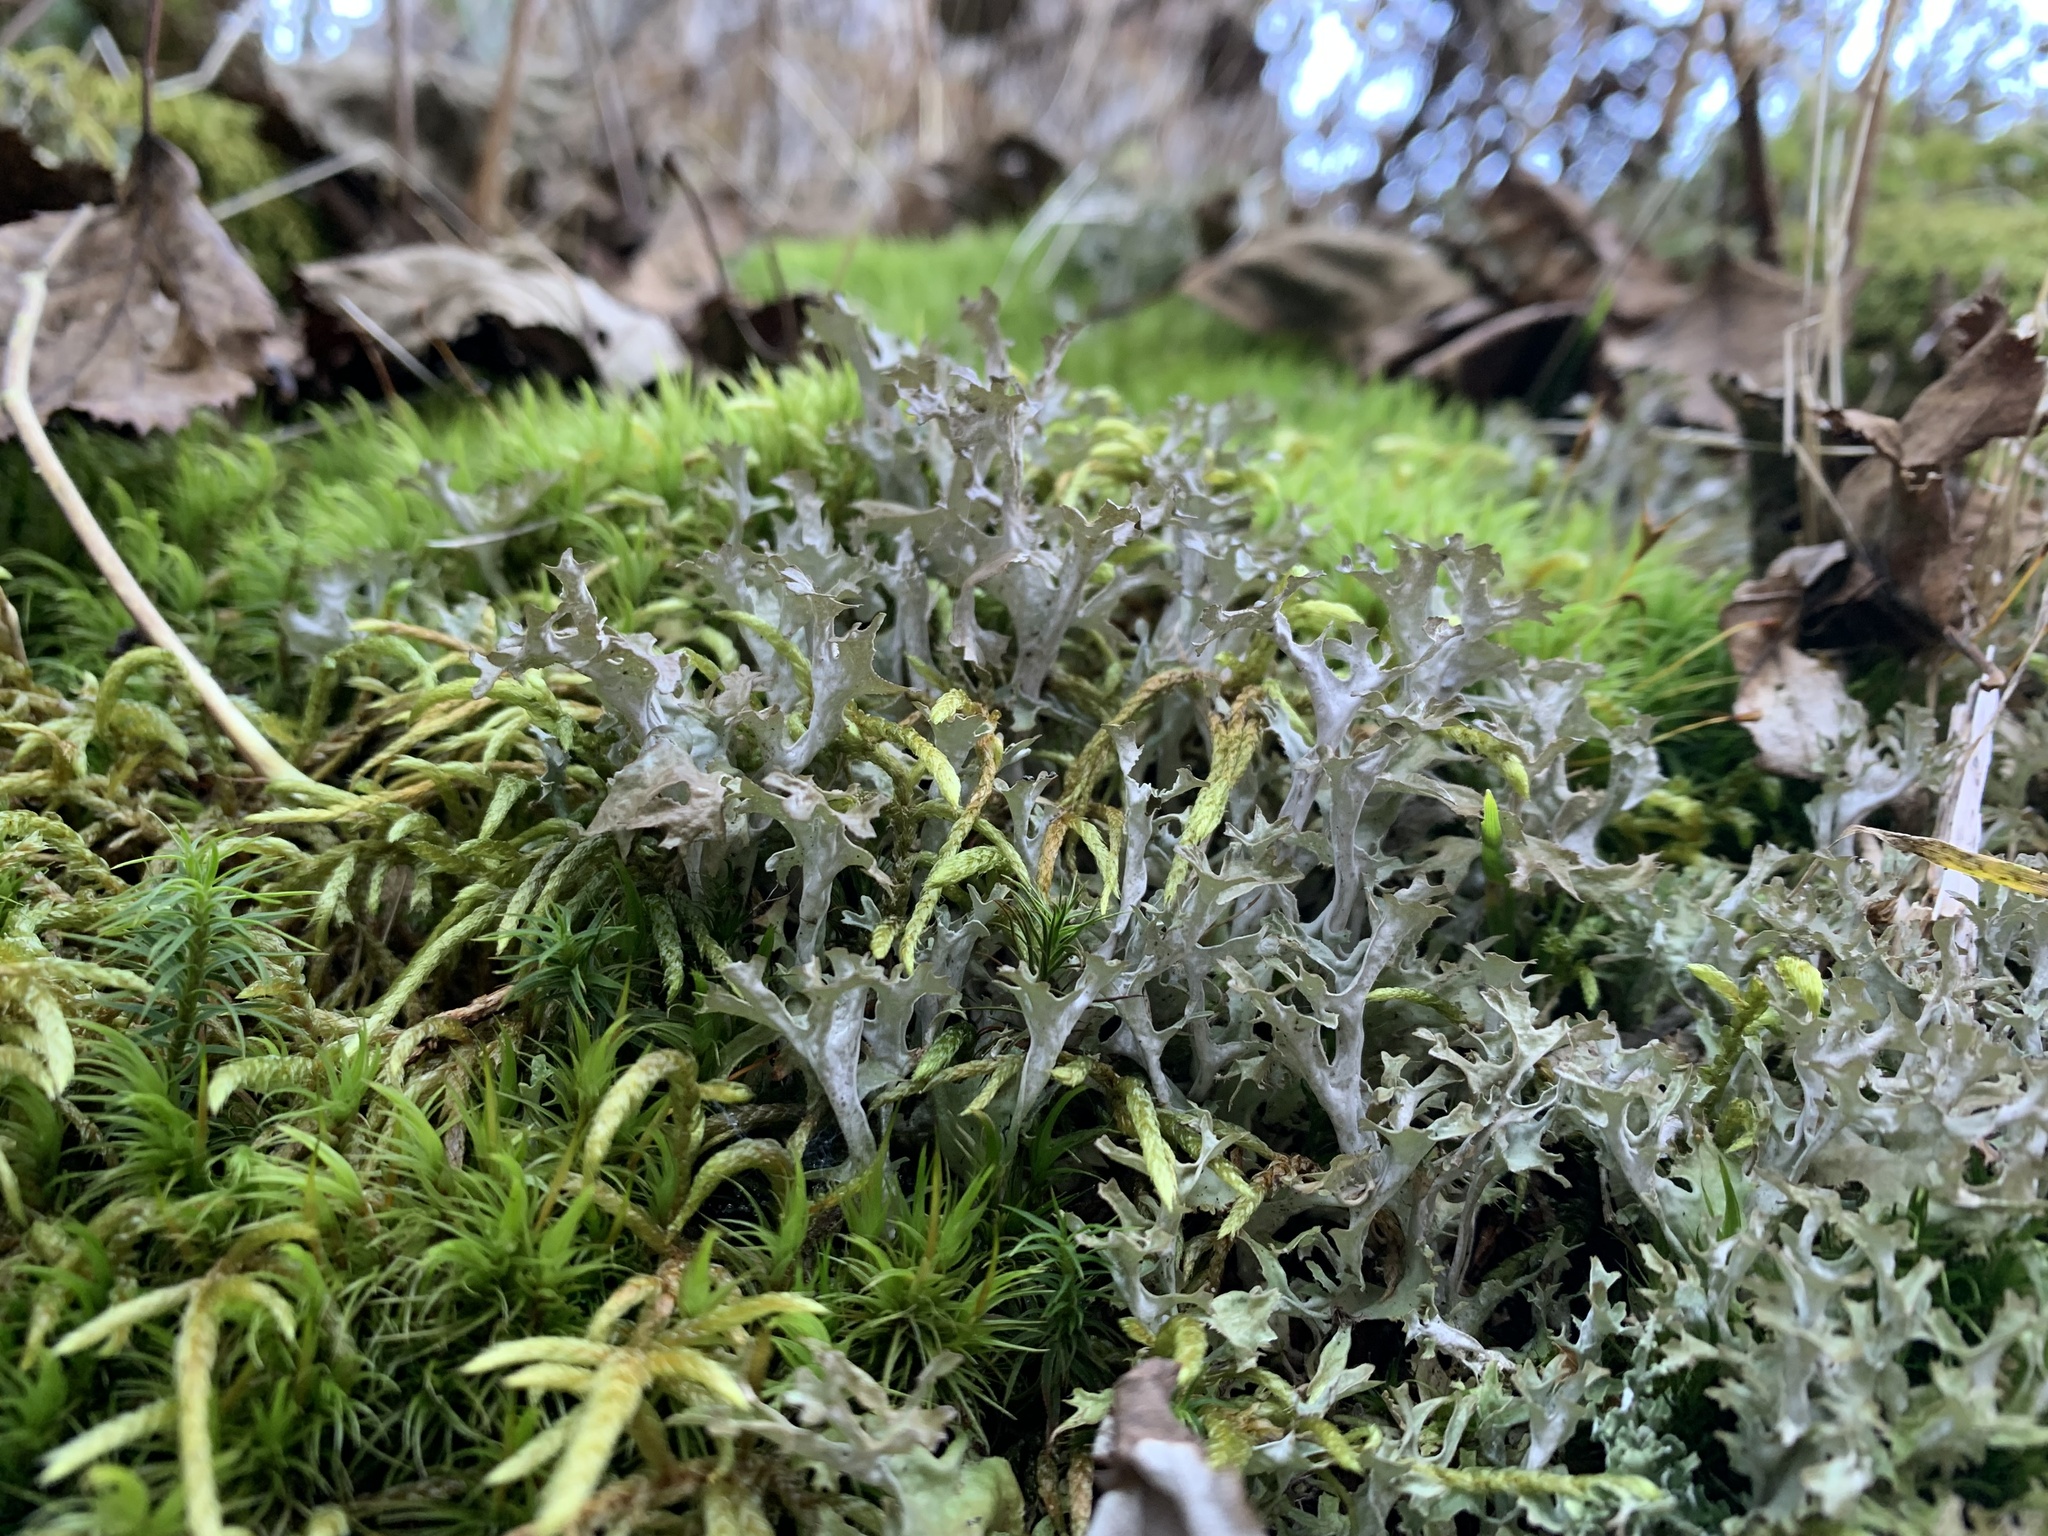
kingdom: Fungi
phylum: Ascomycota
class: Lecanoromycetes
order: Lecanorales
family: Parmeliaceae
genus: Cetraria
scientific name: Cetraria islandica
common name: Iceland lichen
